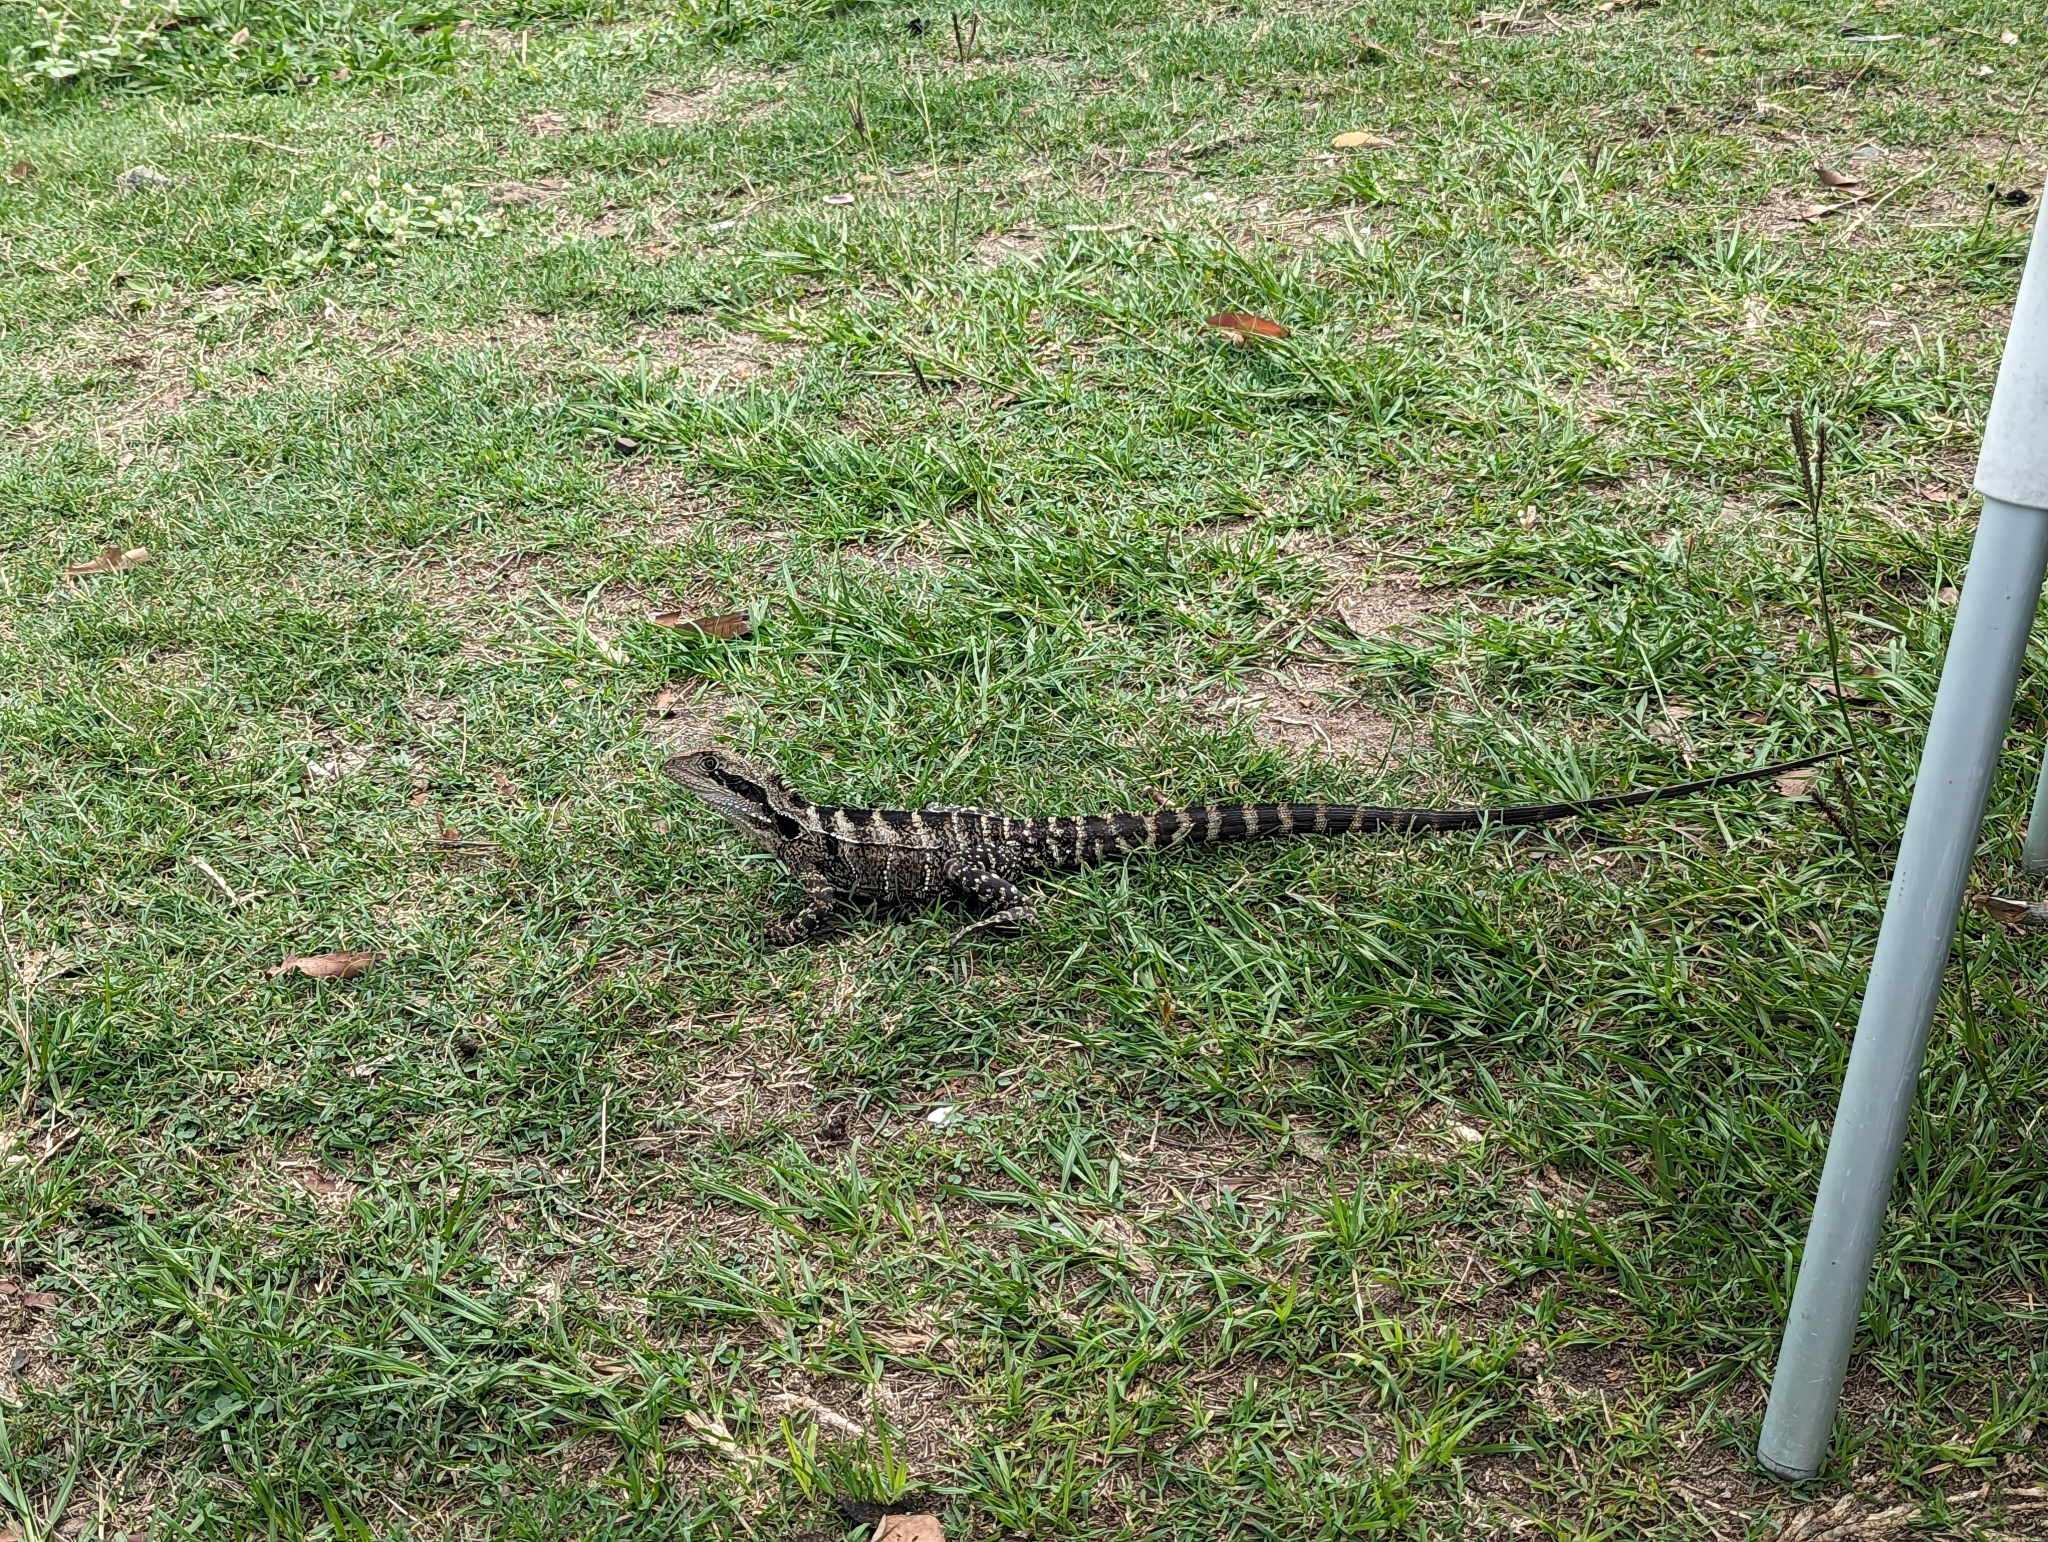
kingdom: Animalia
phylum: Chordata
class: Squamata
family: Agamidae
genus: Intellagama
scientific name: Intellagama lesueurii
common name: Eastern water dragon
